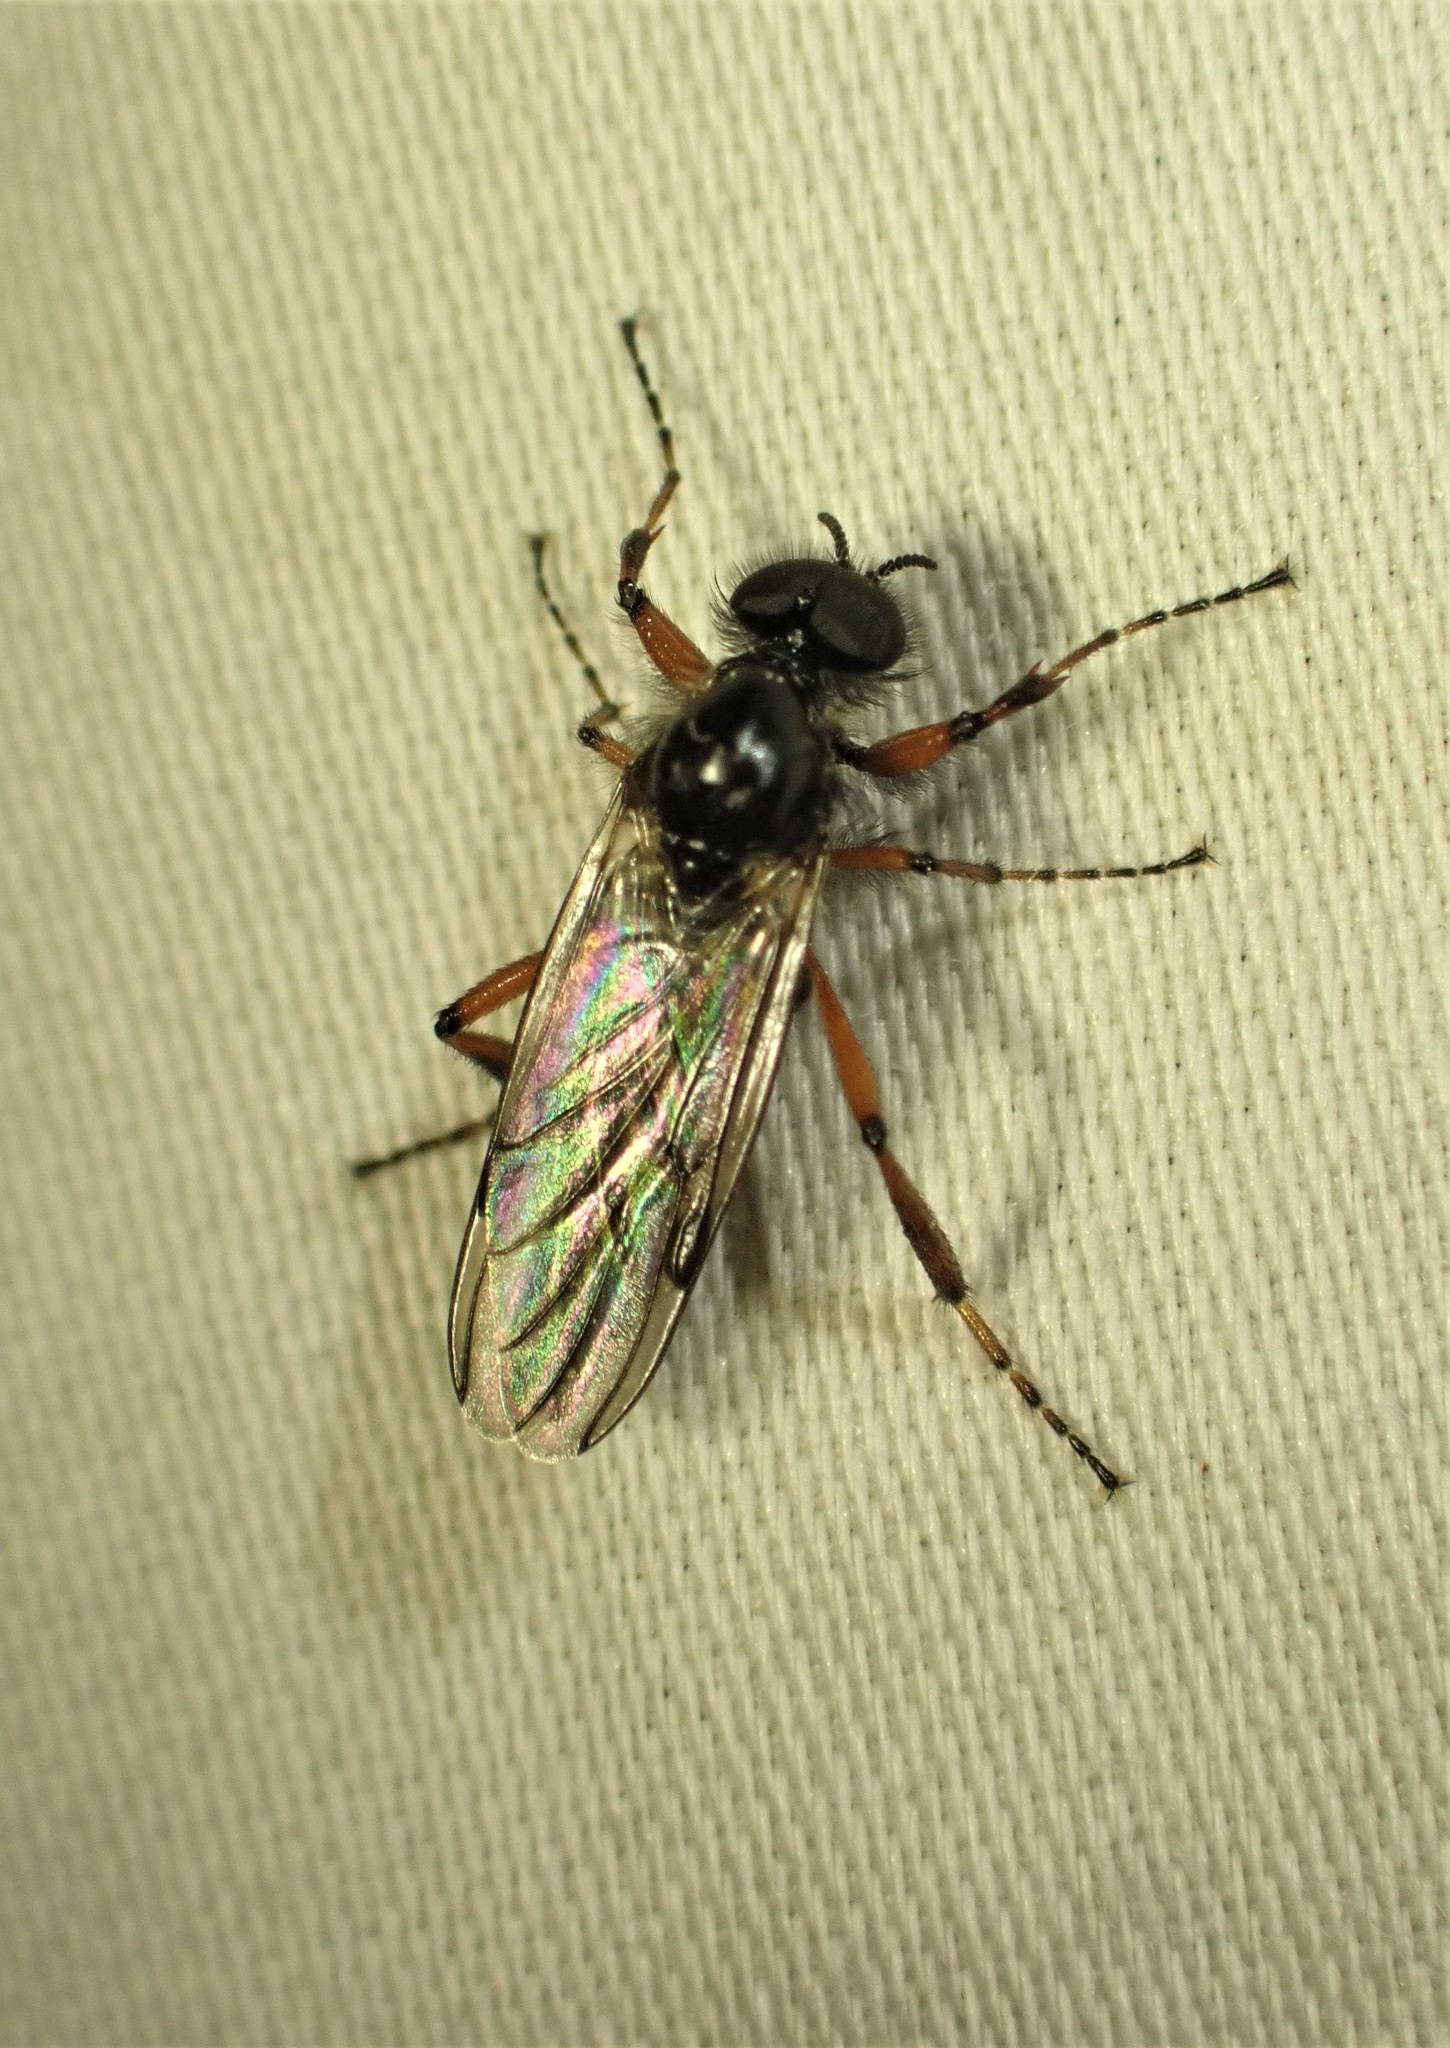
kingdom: Animalia
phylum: Arthropoda
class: Insecta
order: Diptera
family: Bibionidae
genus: Bibio
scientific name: Bibio xanthopus
